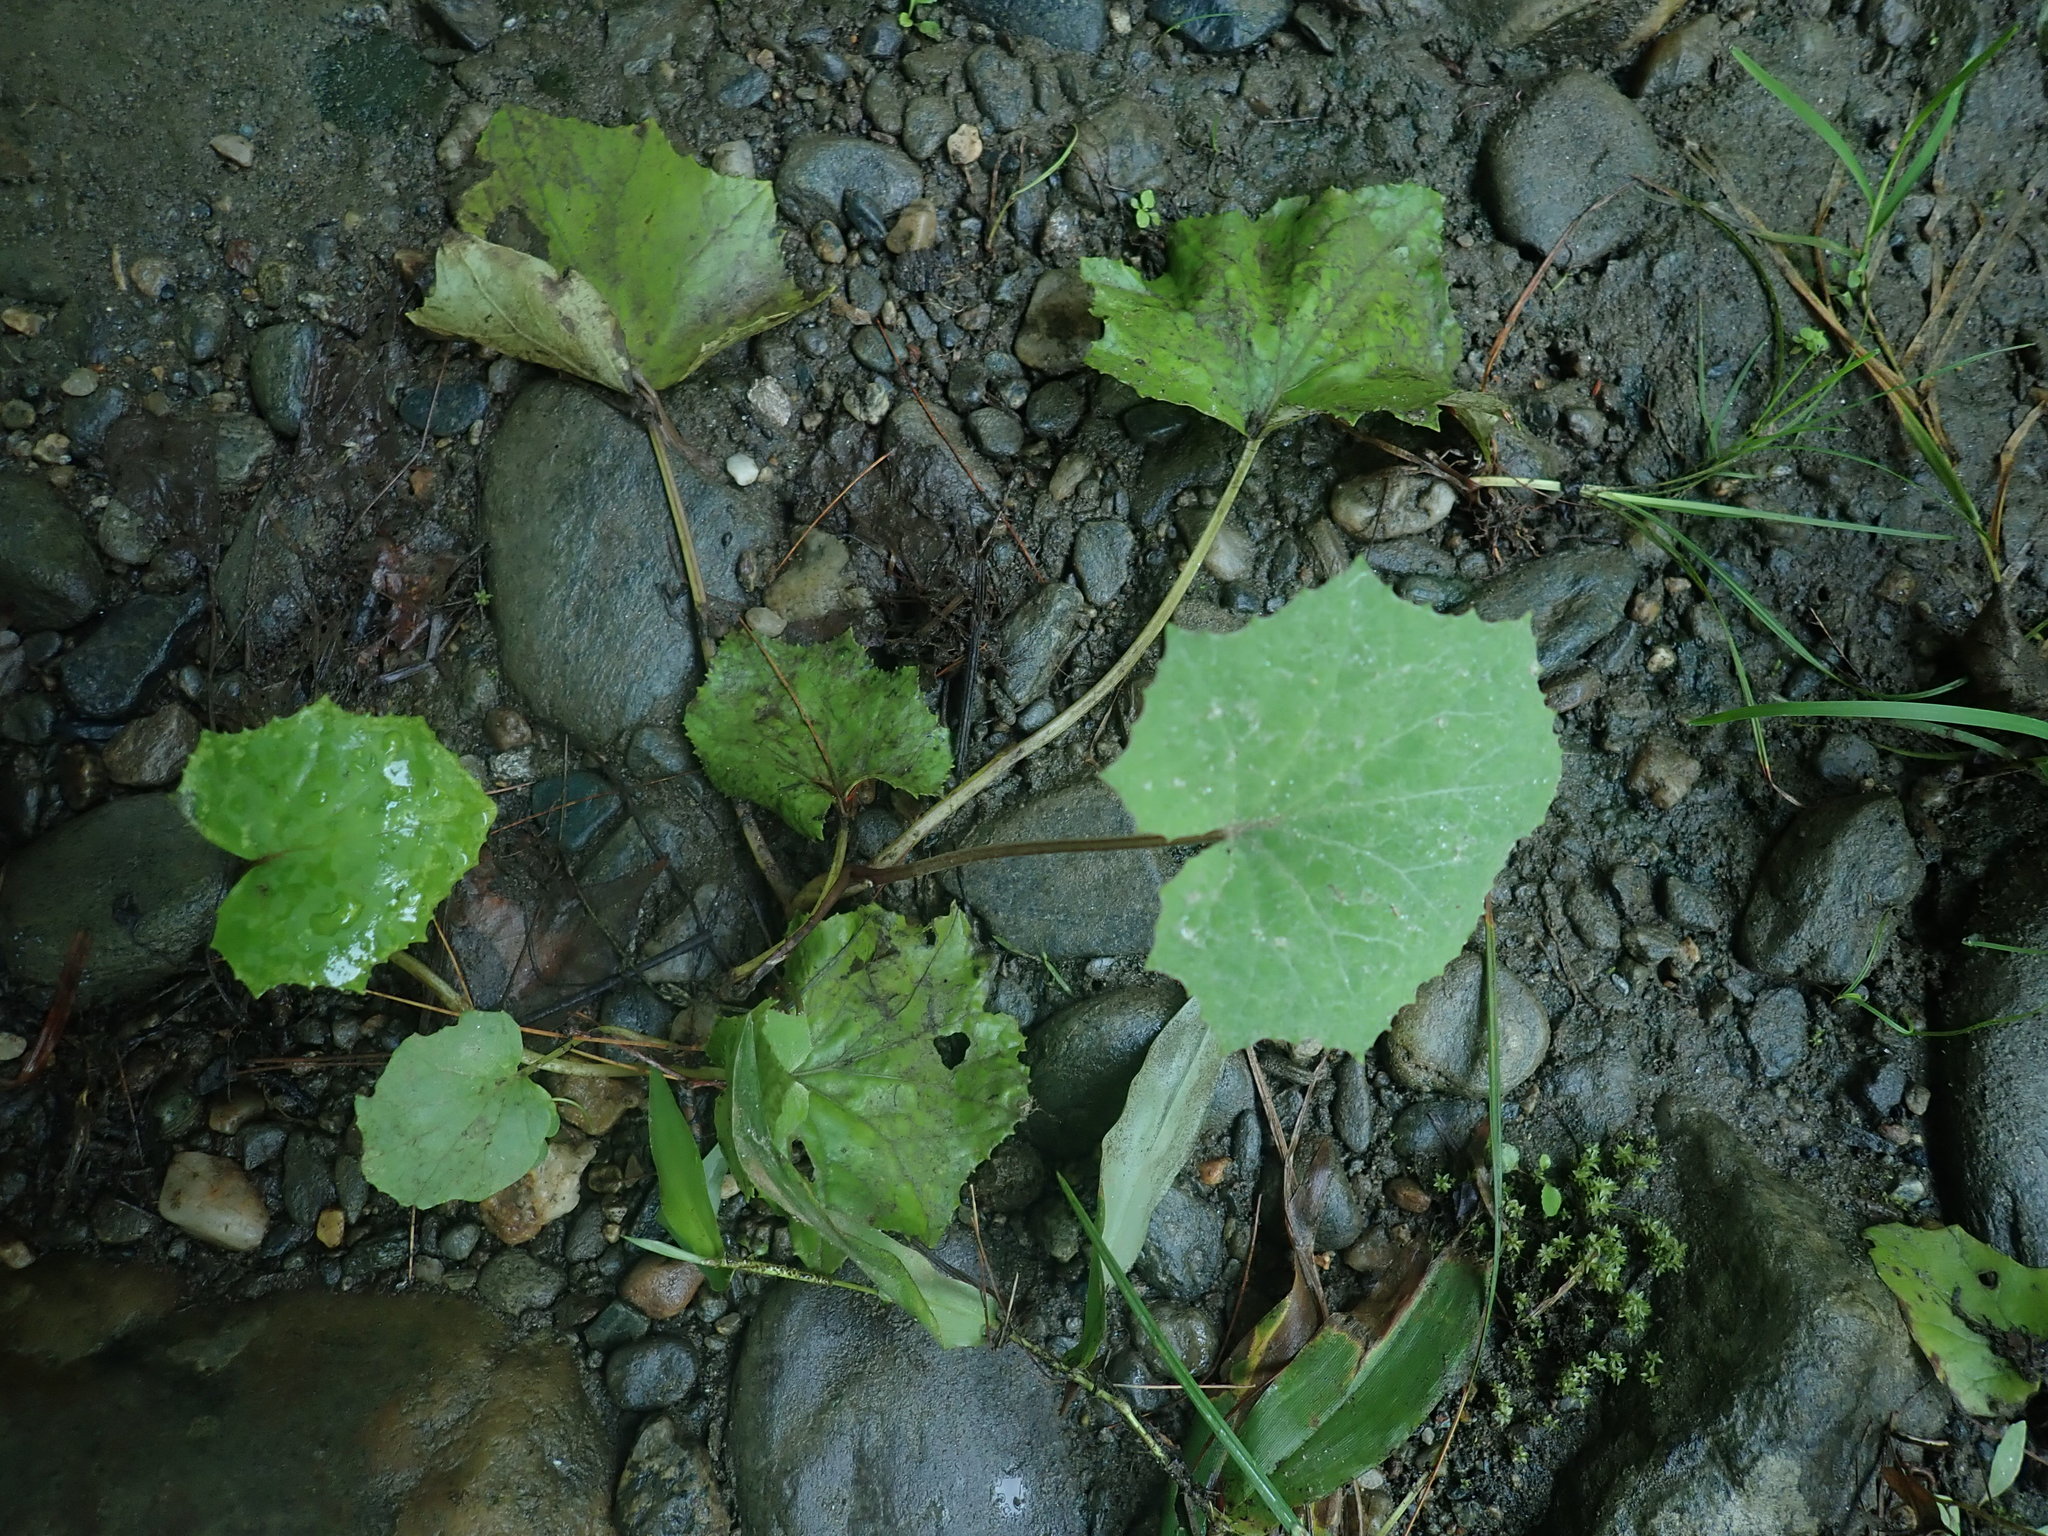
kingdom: Plantae
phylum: Tracheophyta
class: Magnoliopsida
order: Asterales
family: Asteraceae
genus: Tussilago
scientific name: Tussilago farfara
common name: Coltsfoot
